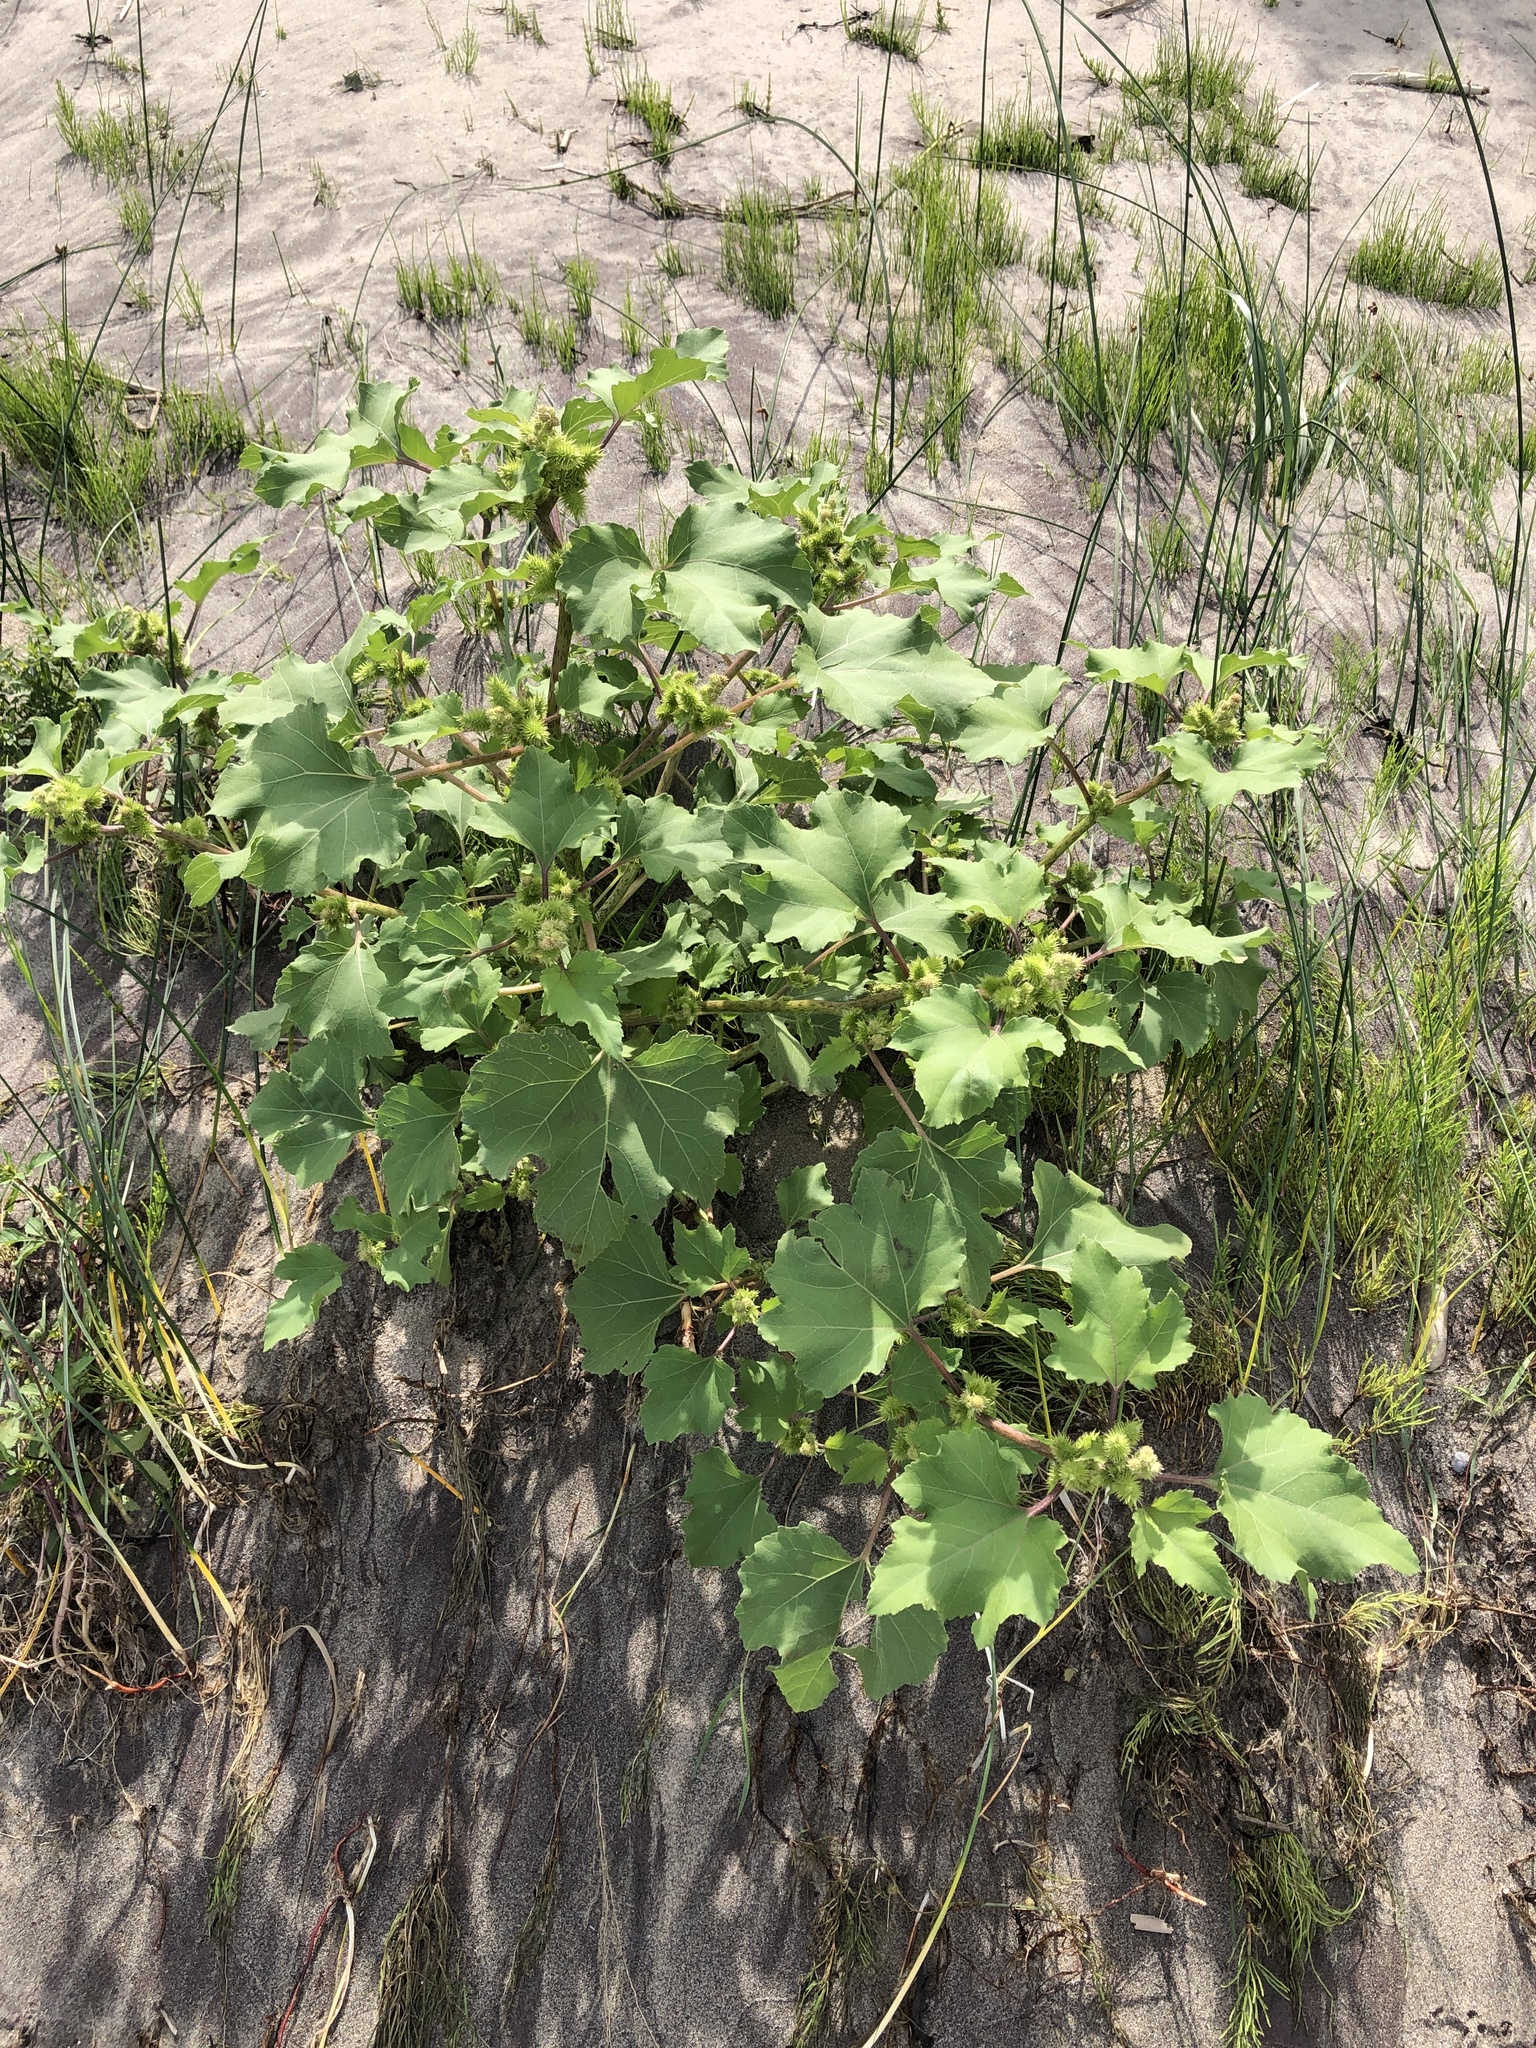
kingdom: Plantae
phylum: Tracheophyta
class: Magnoliopsida
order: Asterales
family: Asteraceae
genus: Xanthium
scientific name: Xanthium strumarium
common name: Rough cocklebur
